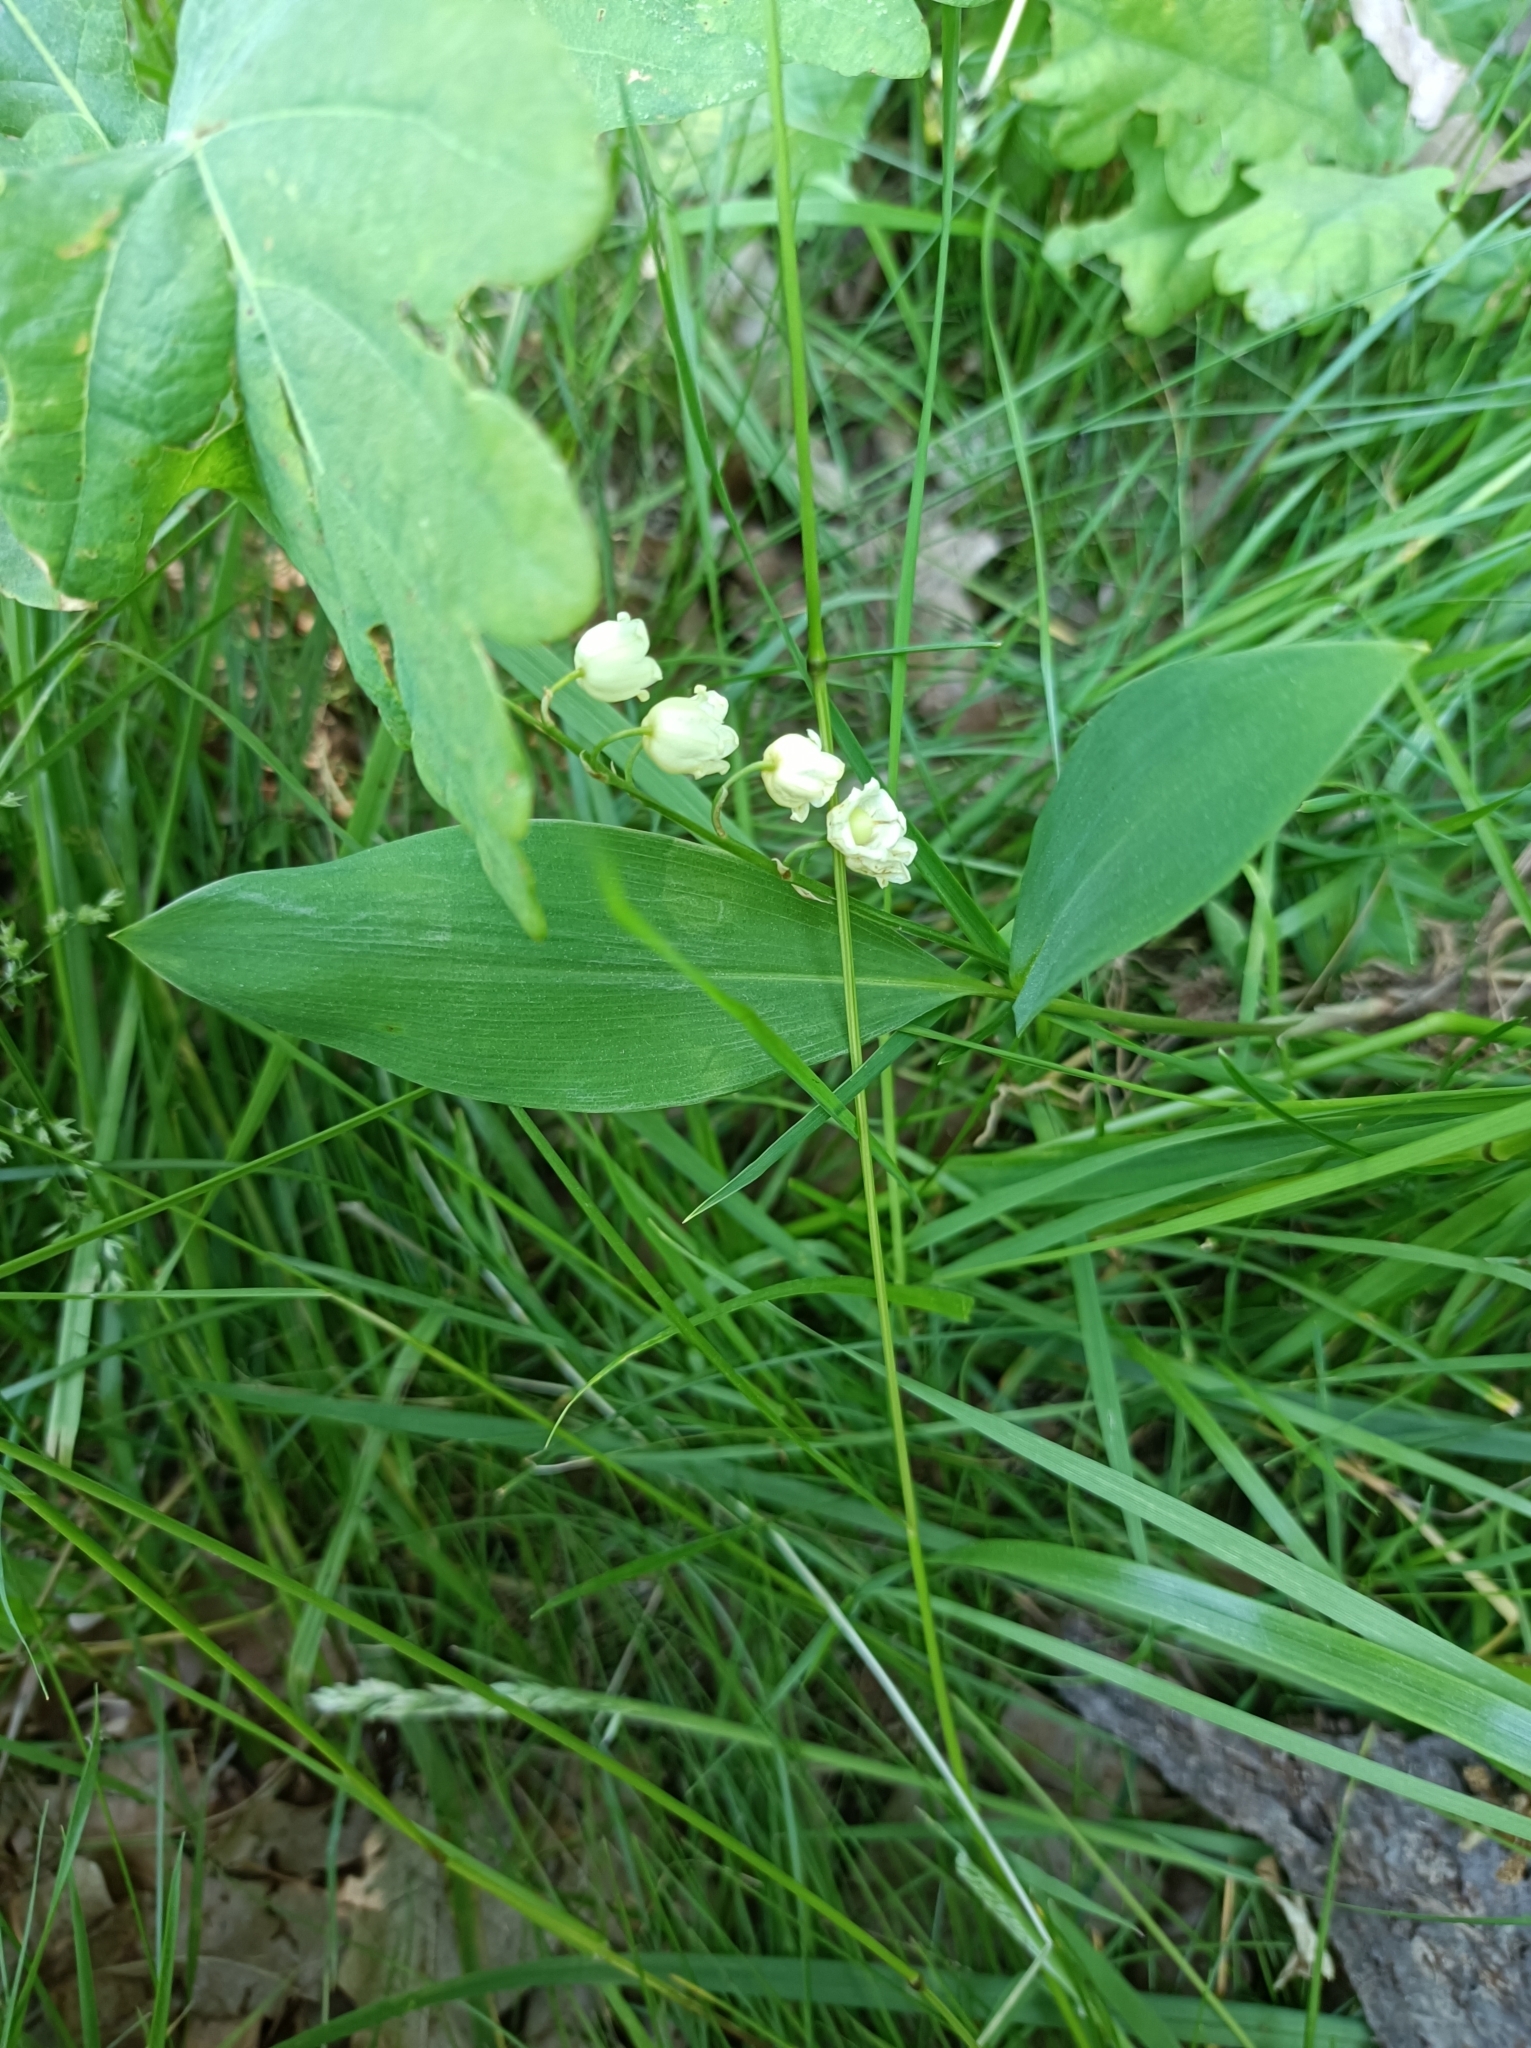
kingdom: Plantae
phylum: Tracheophyta
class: Liliopsida
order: Asparagales
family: Asparagaceae
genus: Convallaria
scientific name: Convallaria majalis
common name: Lily-of-the-valley
